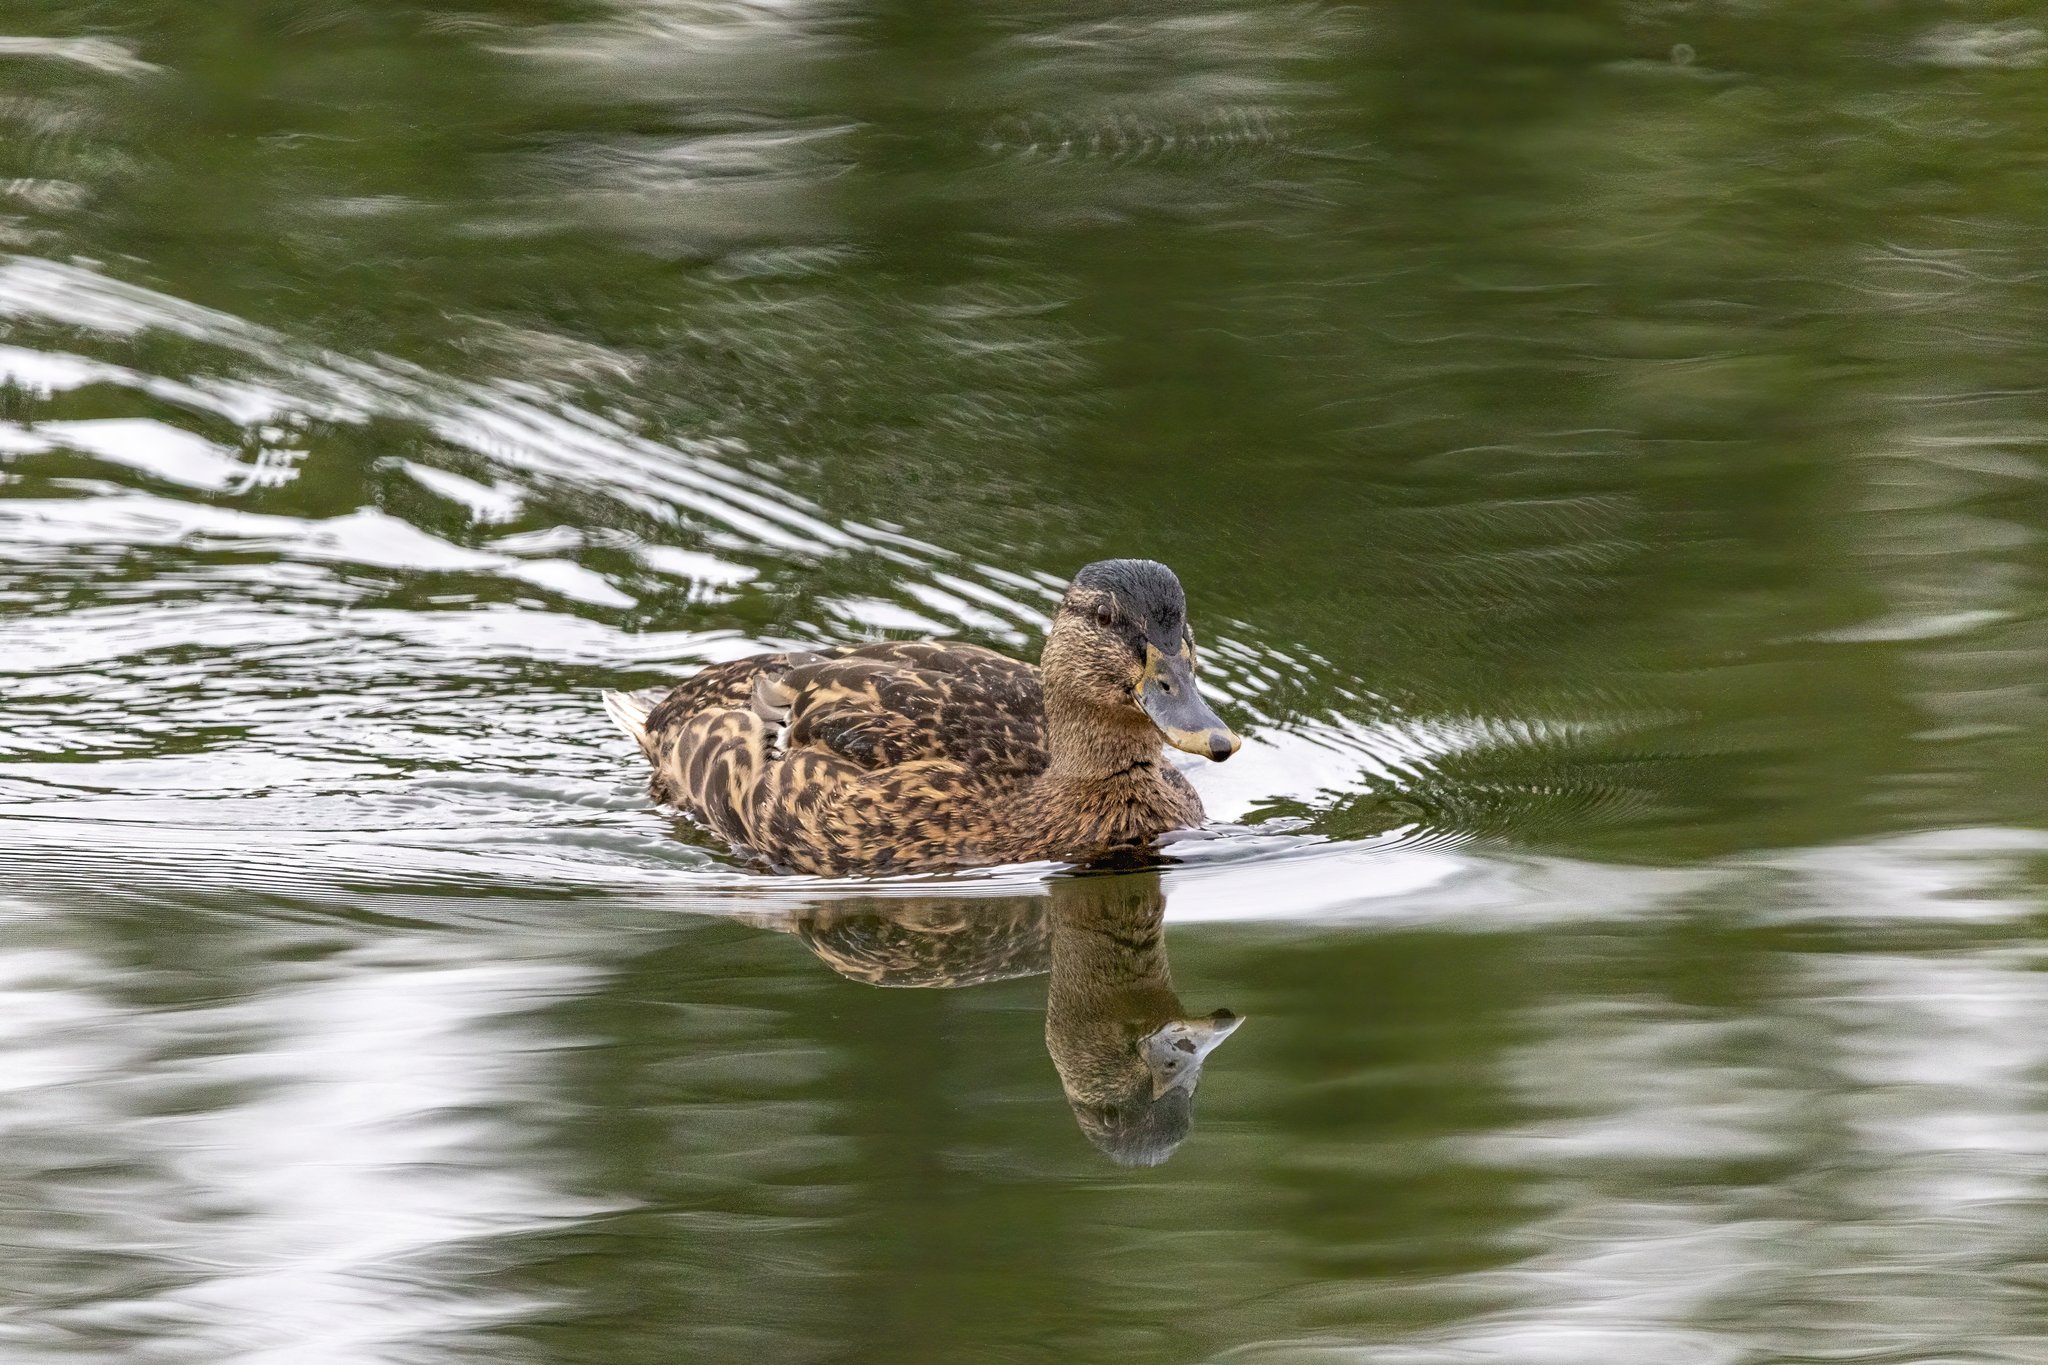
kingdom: Animalia
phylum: Chordata
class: Aves
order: Anseriformes
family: Anatidae
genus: Anas
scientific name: Anas platyrhynchos
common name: Mallard
